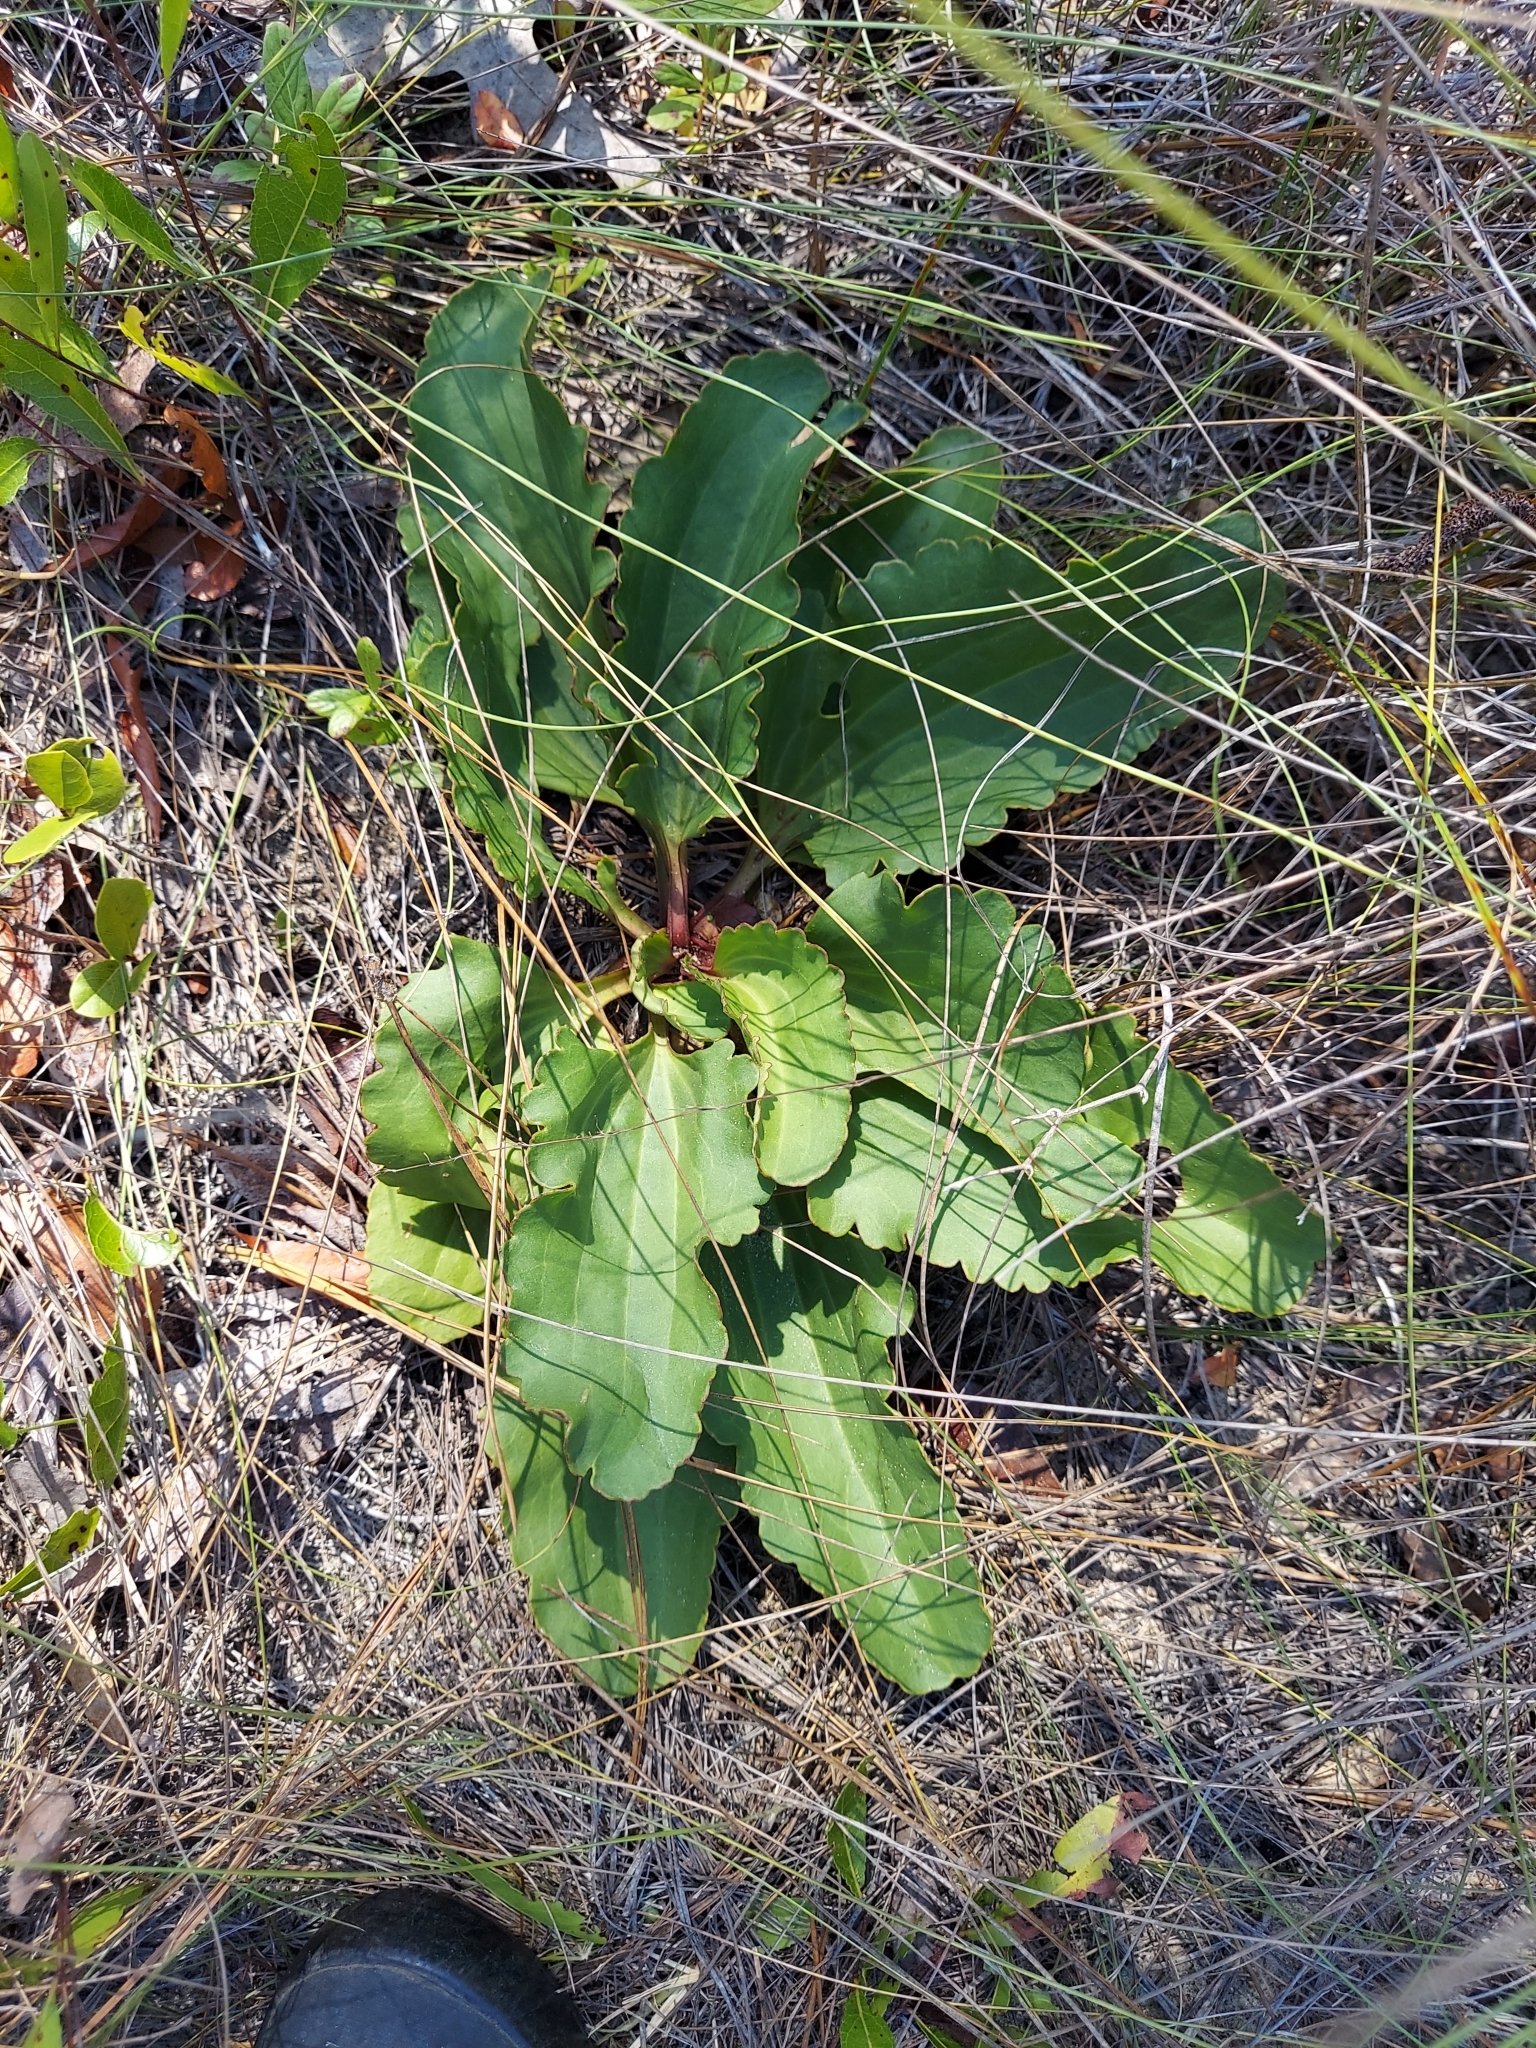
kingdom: Plantae
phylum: Tracheophyta
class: Magnoliopsida
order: Asterales
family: Asteraceae
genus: Arnoglossum
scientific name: Arnoglossum floridanum
